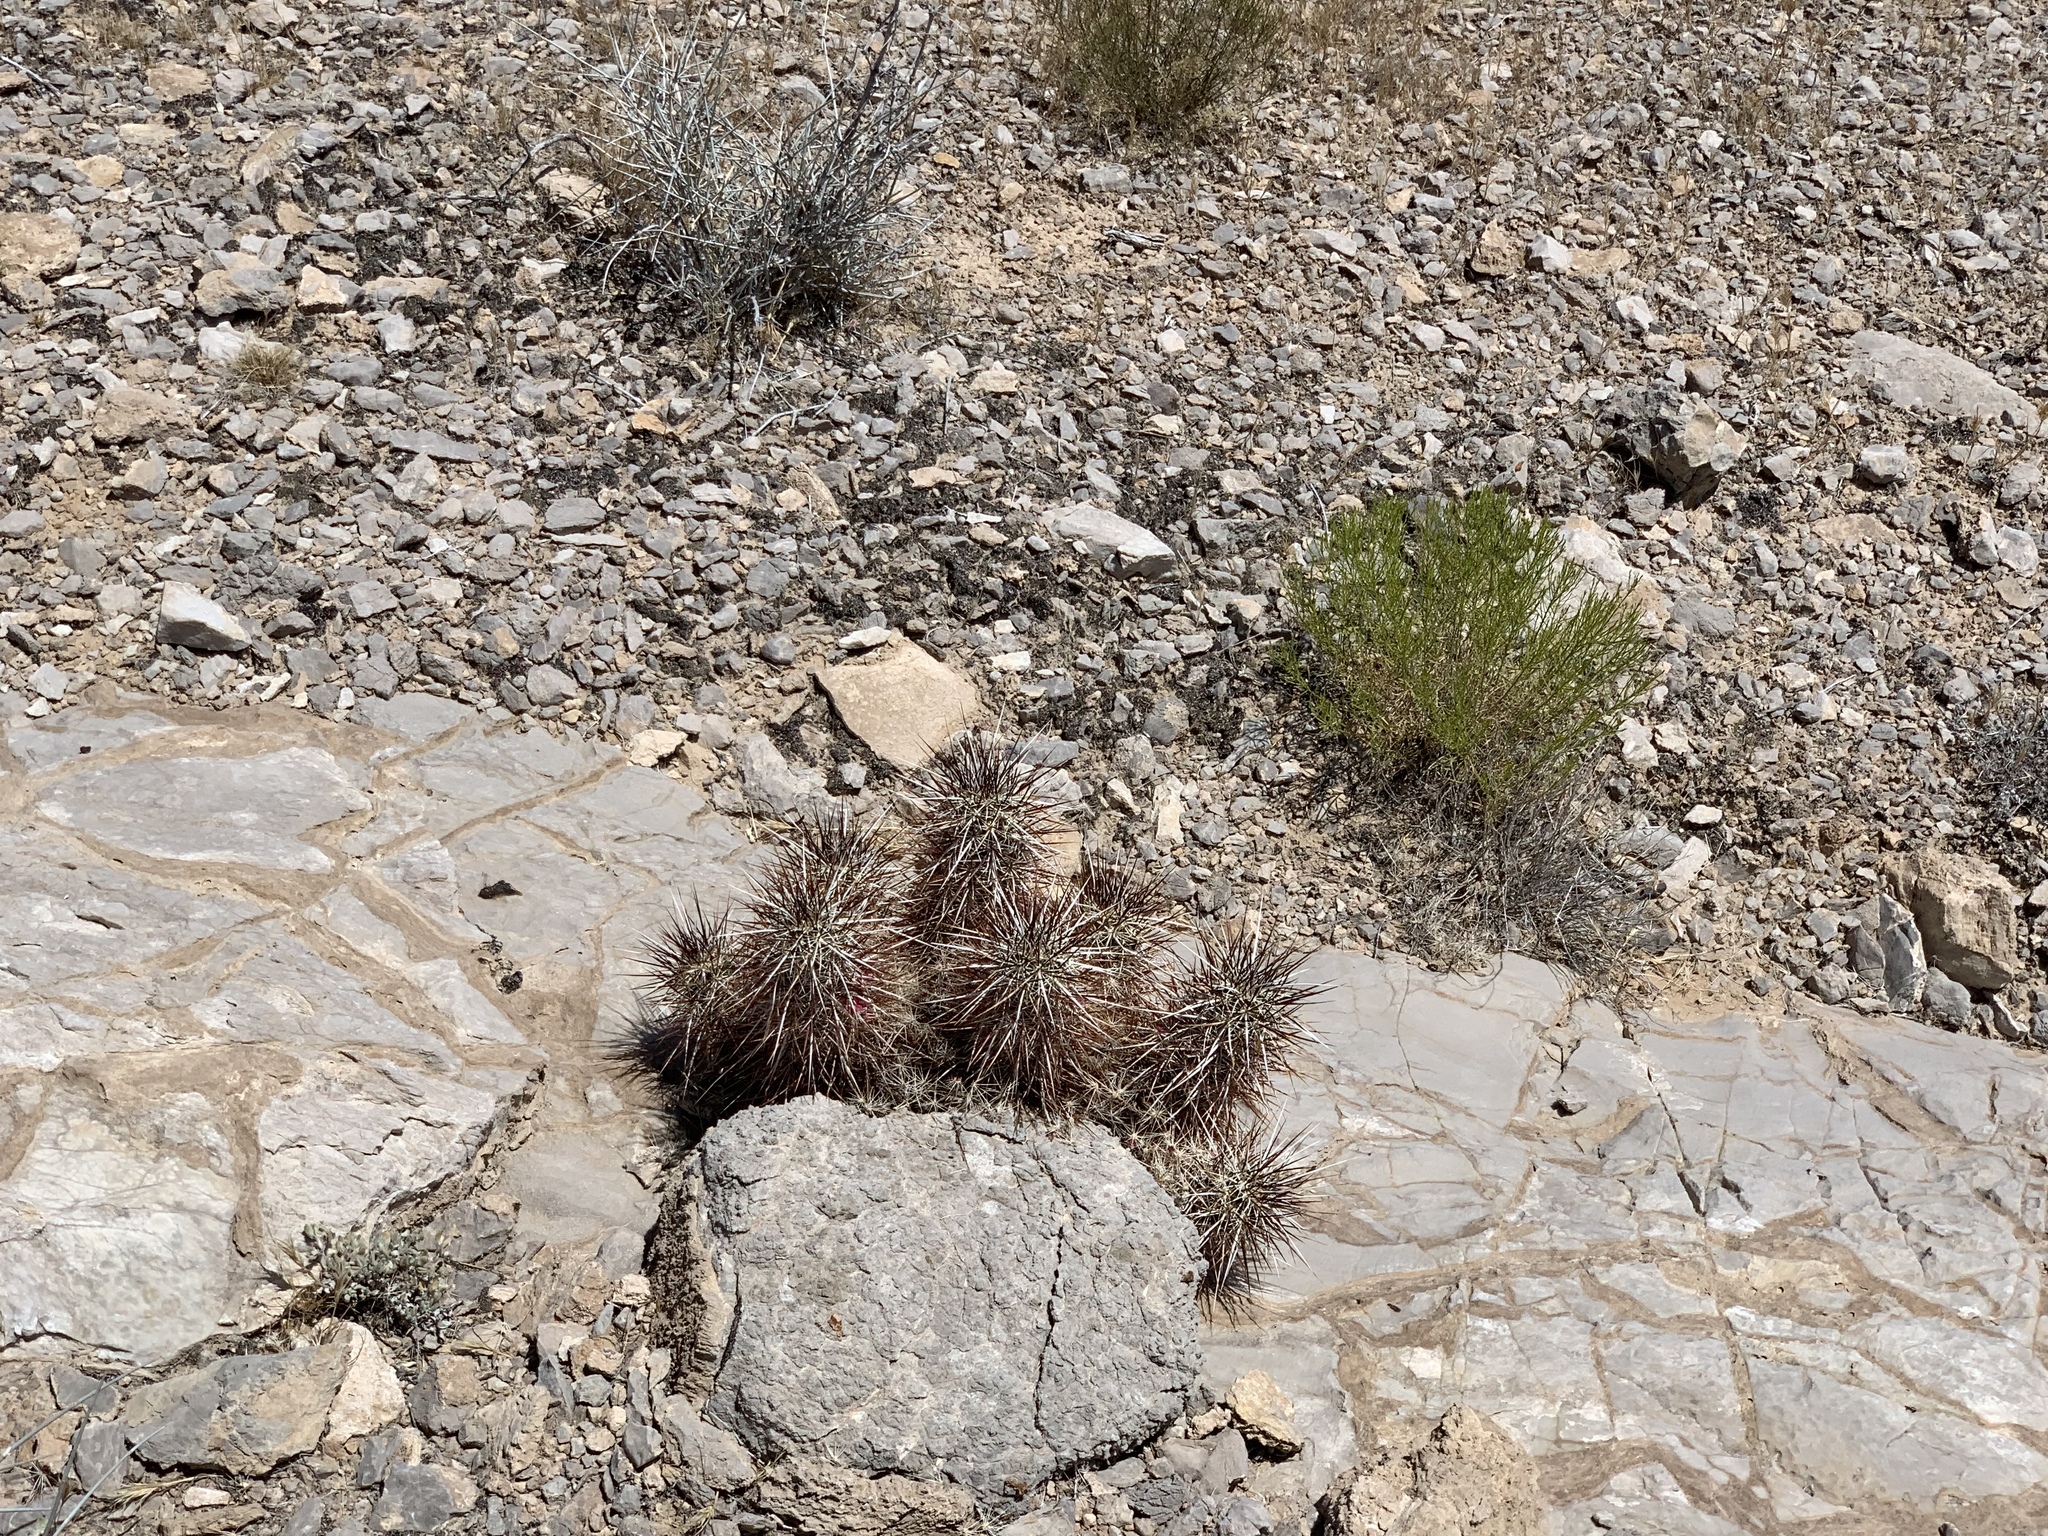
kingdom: Plantae
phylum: Tracheophyta
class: Magnoliopsida
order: Caryophyllales
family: Cactaceae
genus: Echinocereus
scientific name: Echinocereus engelmannii
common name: Engelmann's hedgehog cactus
